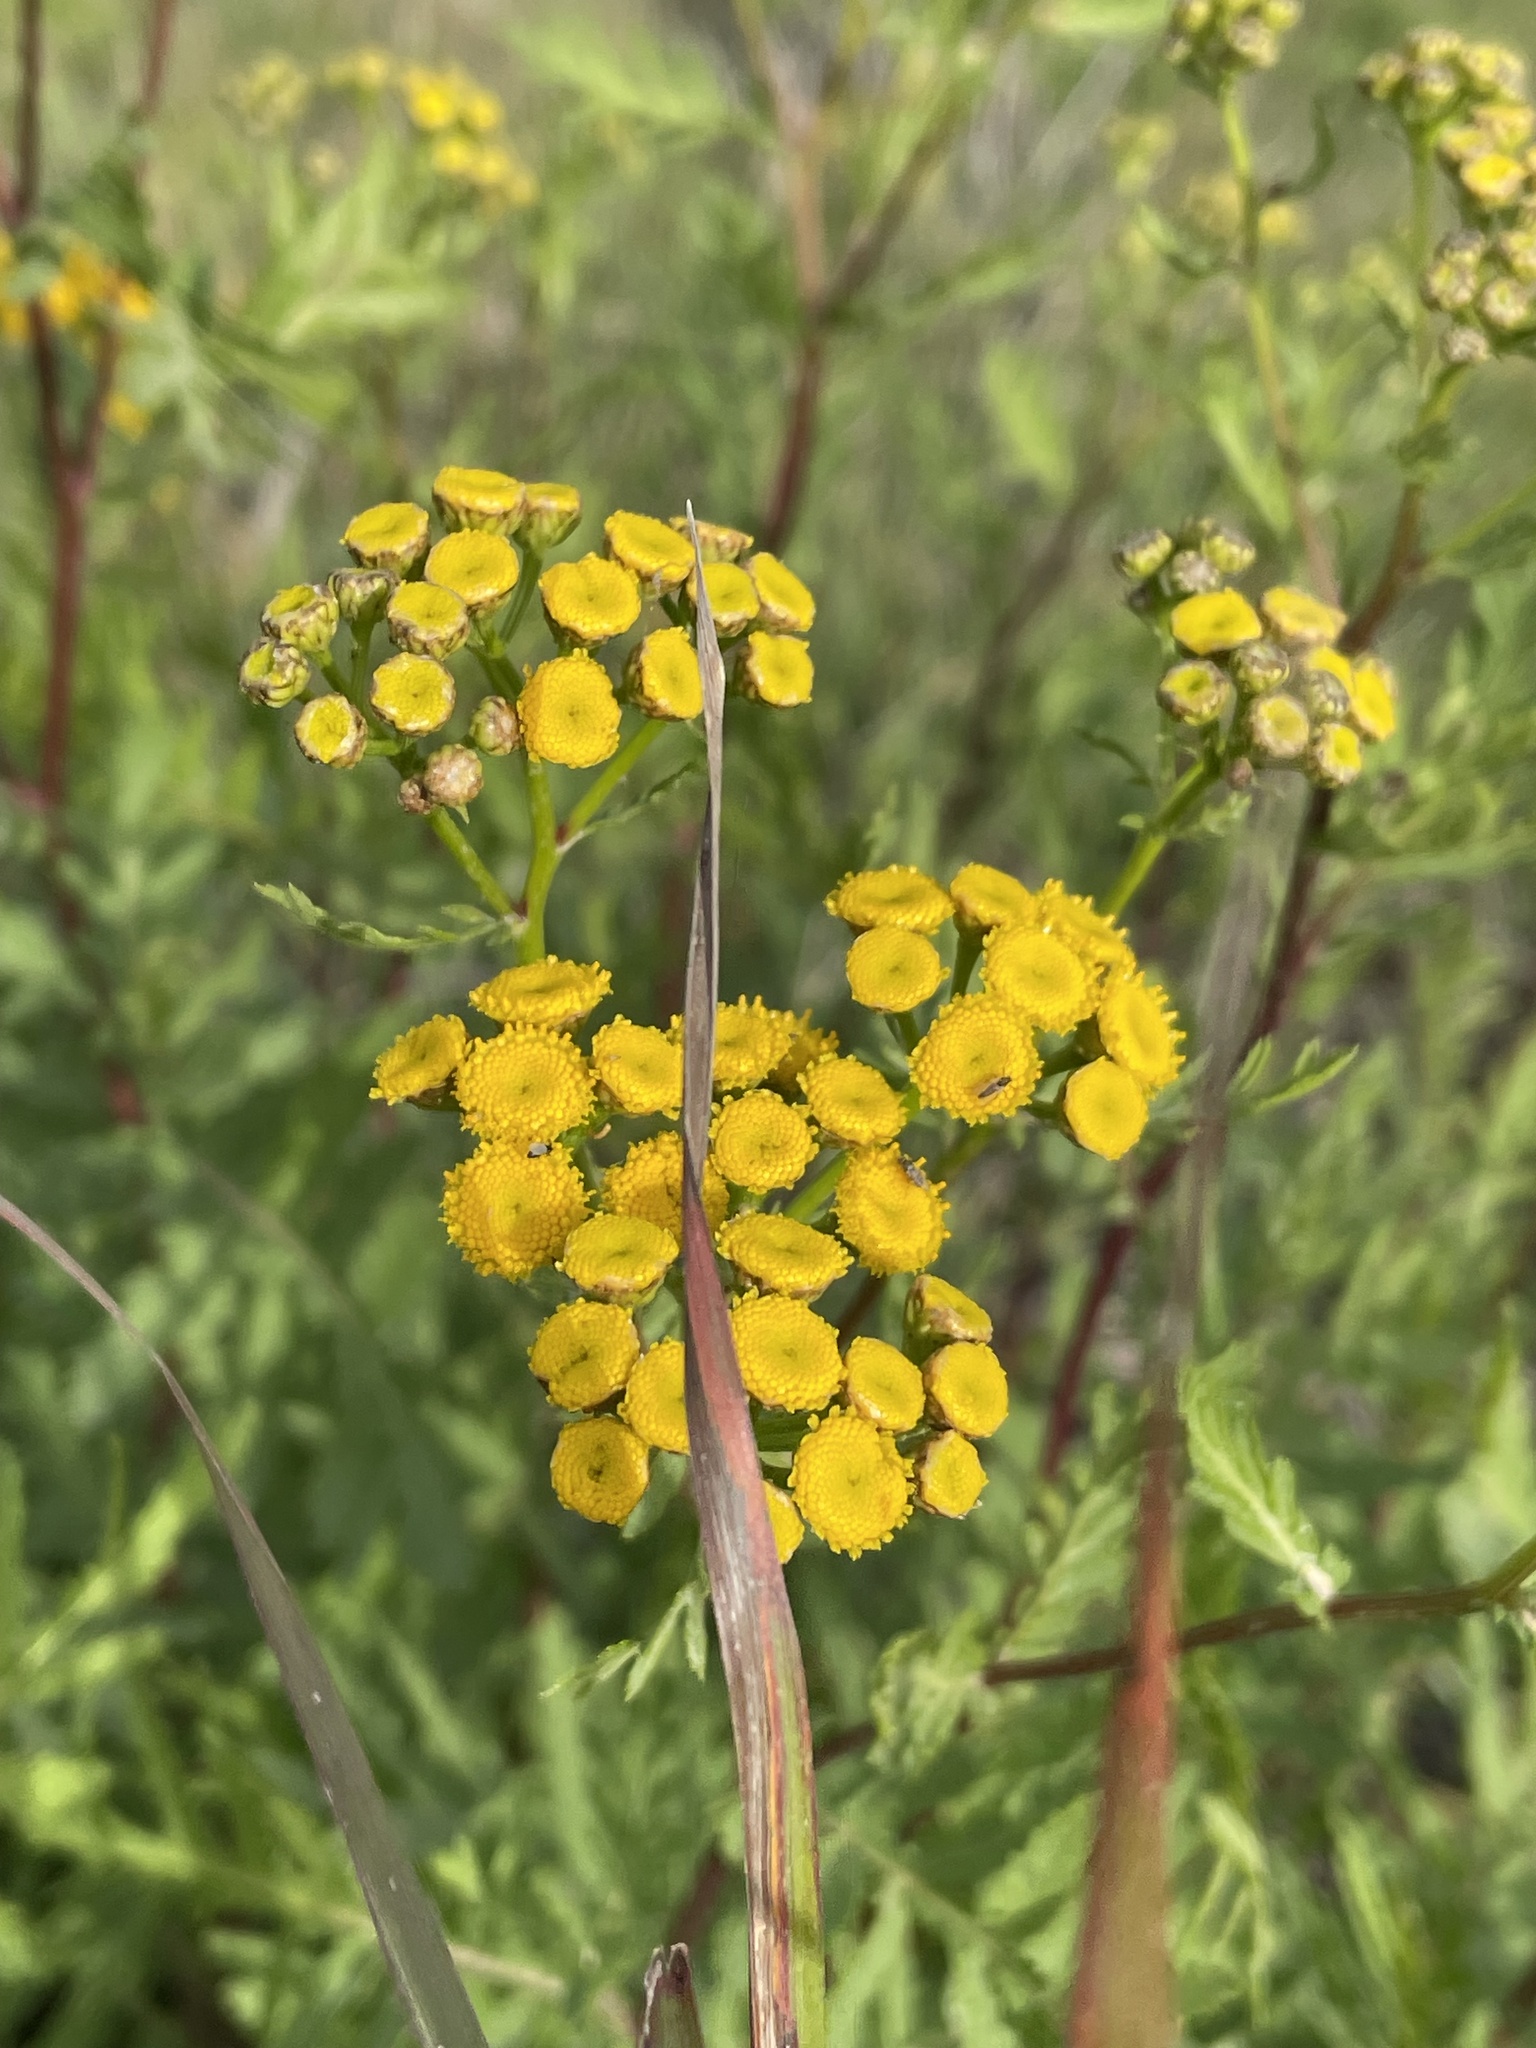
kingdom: Plantae
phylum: Tracheophyta
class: Magnoliopsida
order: Asterales
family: Asteraceae
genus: Tanacetum
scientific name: Tanacetum vulgare
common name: Common tansy
